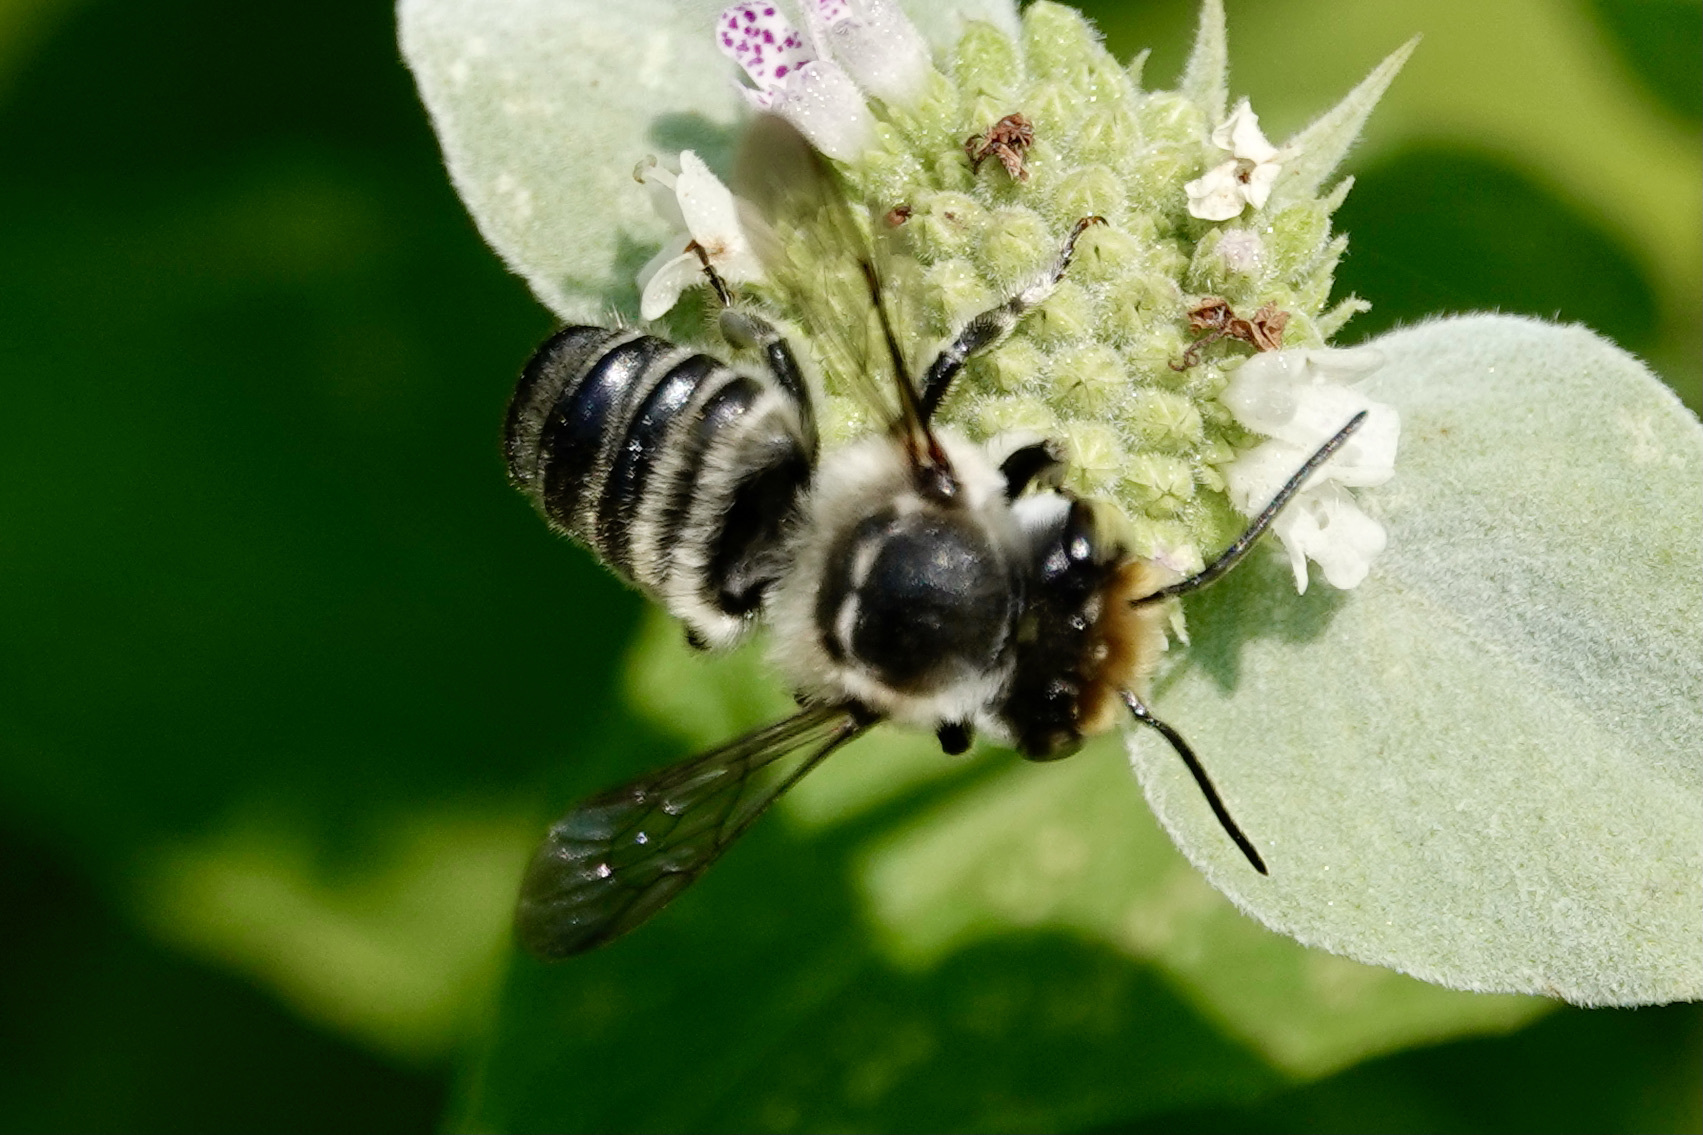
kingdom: Animalia
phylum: Arthropoda
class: Insecta
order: Hymenoptera
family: Megachilidae
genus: Megachile
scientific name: Megachile petulans
